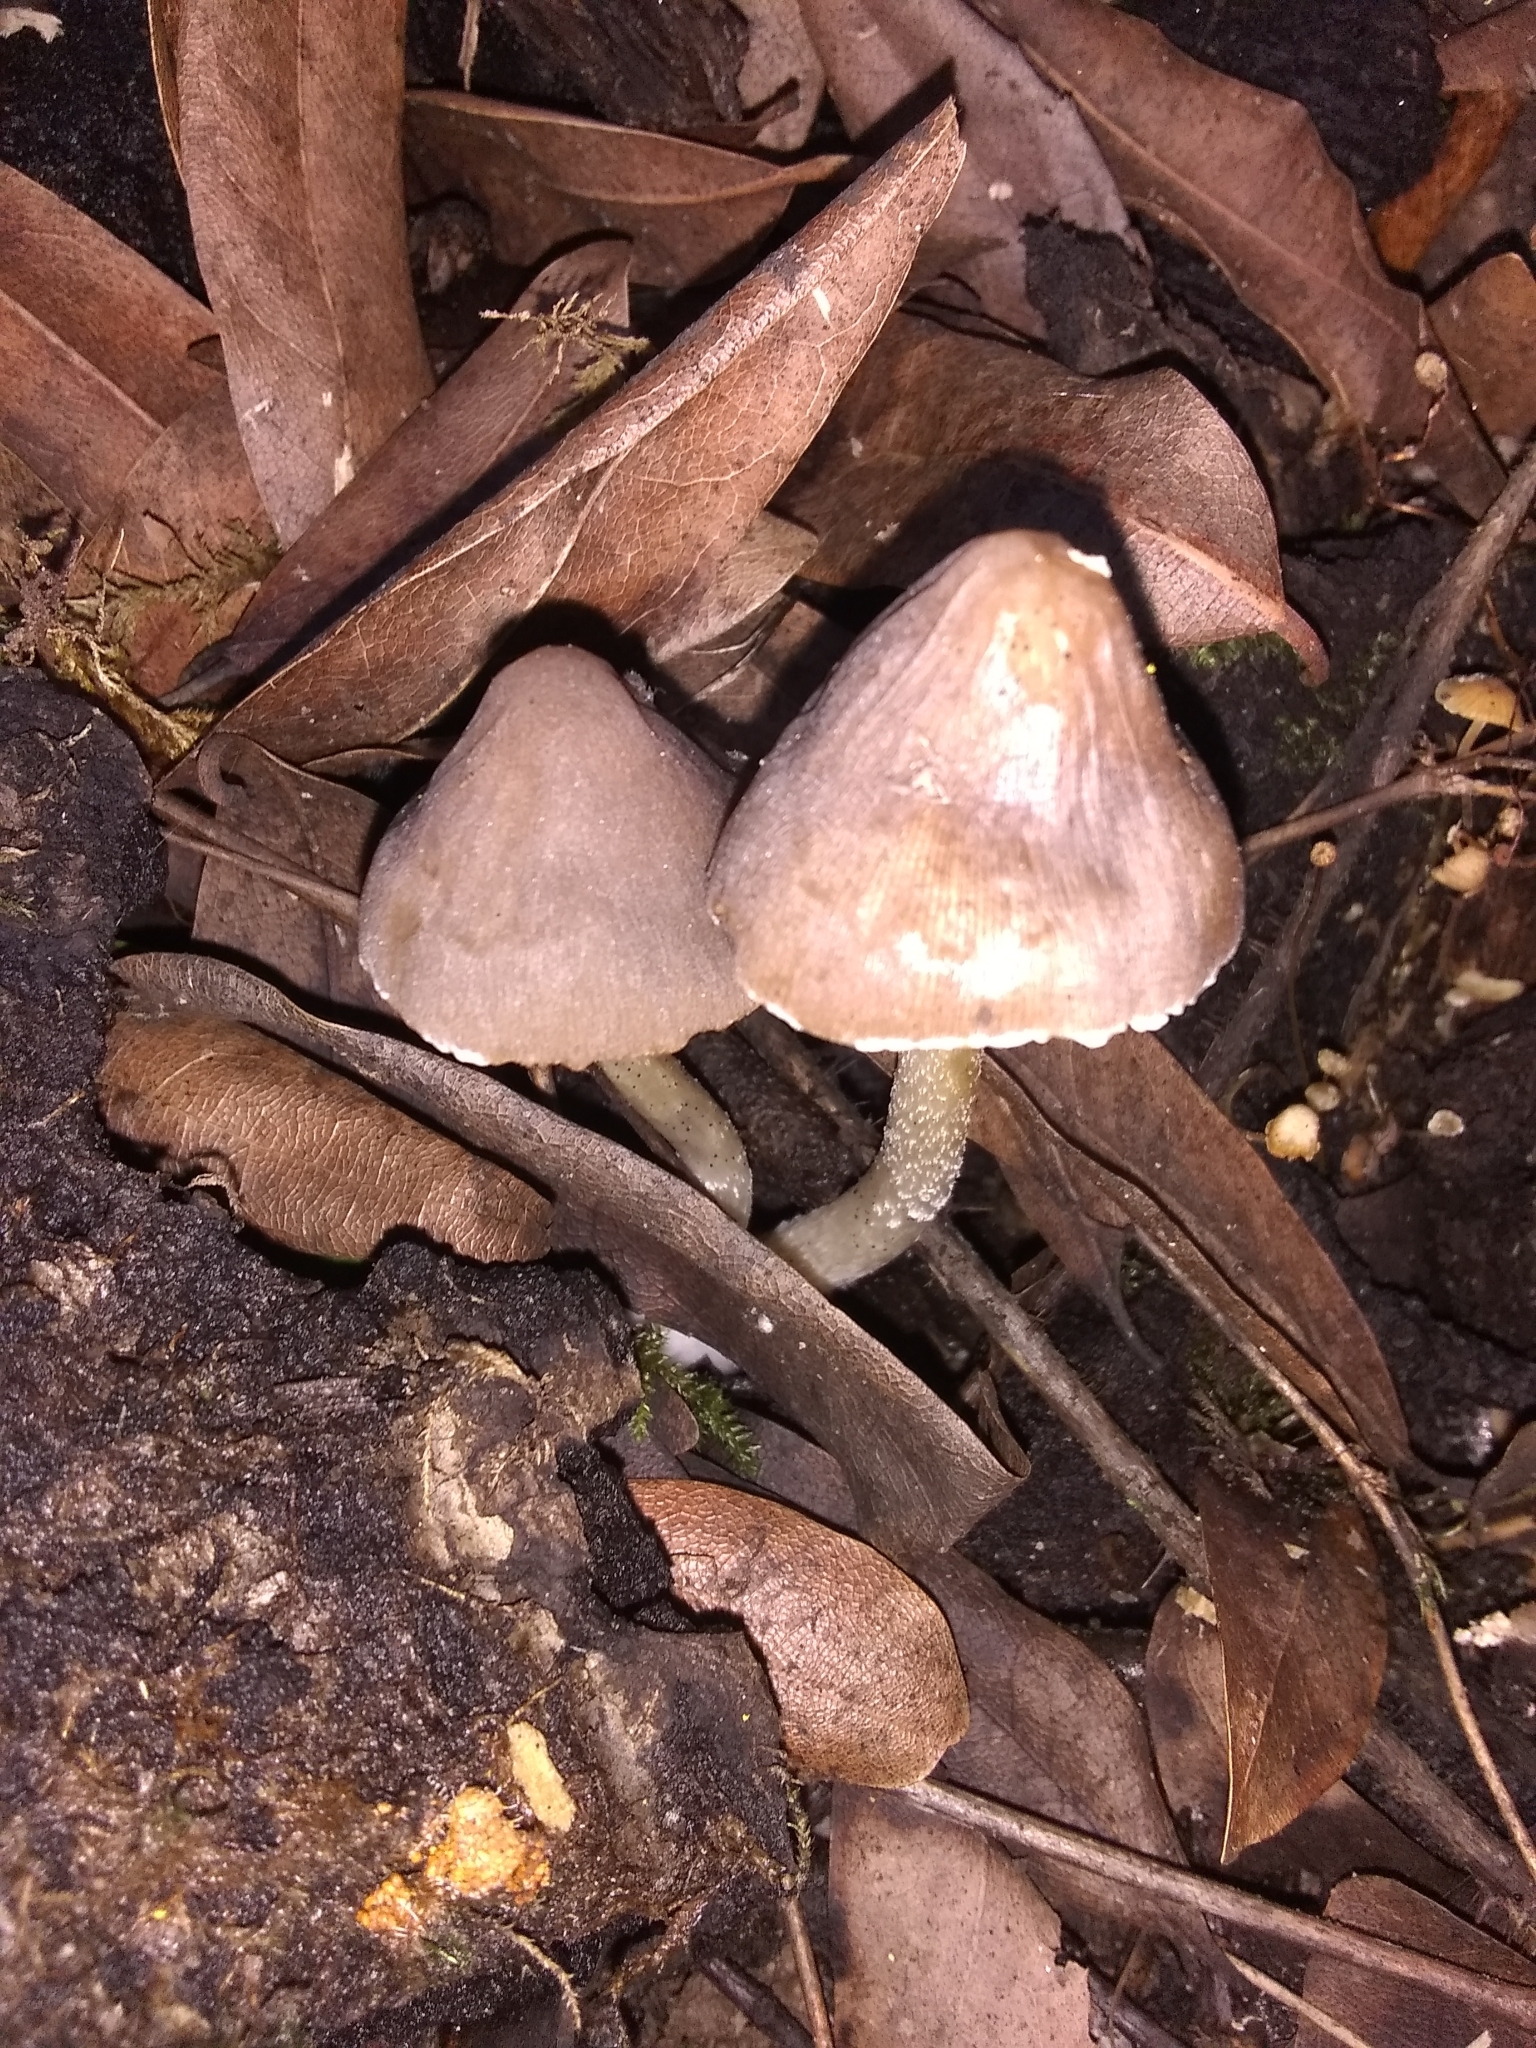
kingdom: Fungi
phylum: Basidiomycota
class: Agaricomycetes
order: Agaricales
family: Psathyrellaceae
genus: Psathyrella
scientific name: Psathyrella longipes
